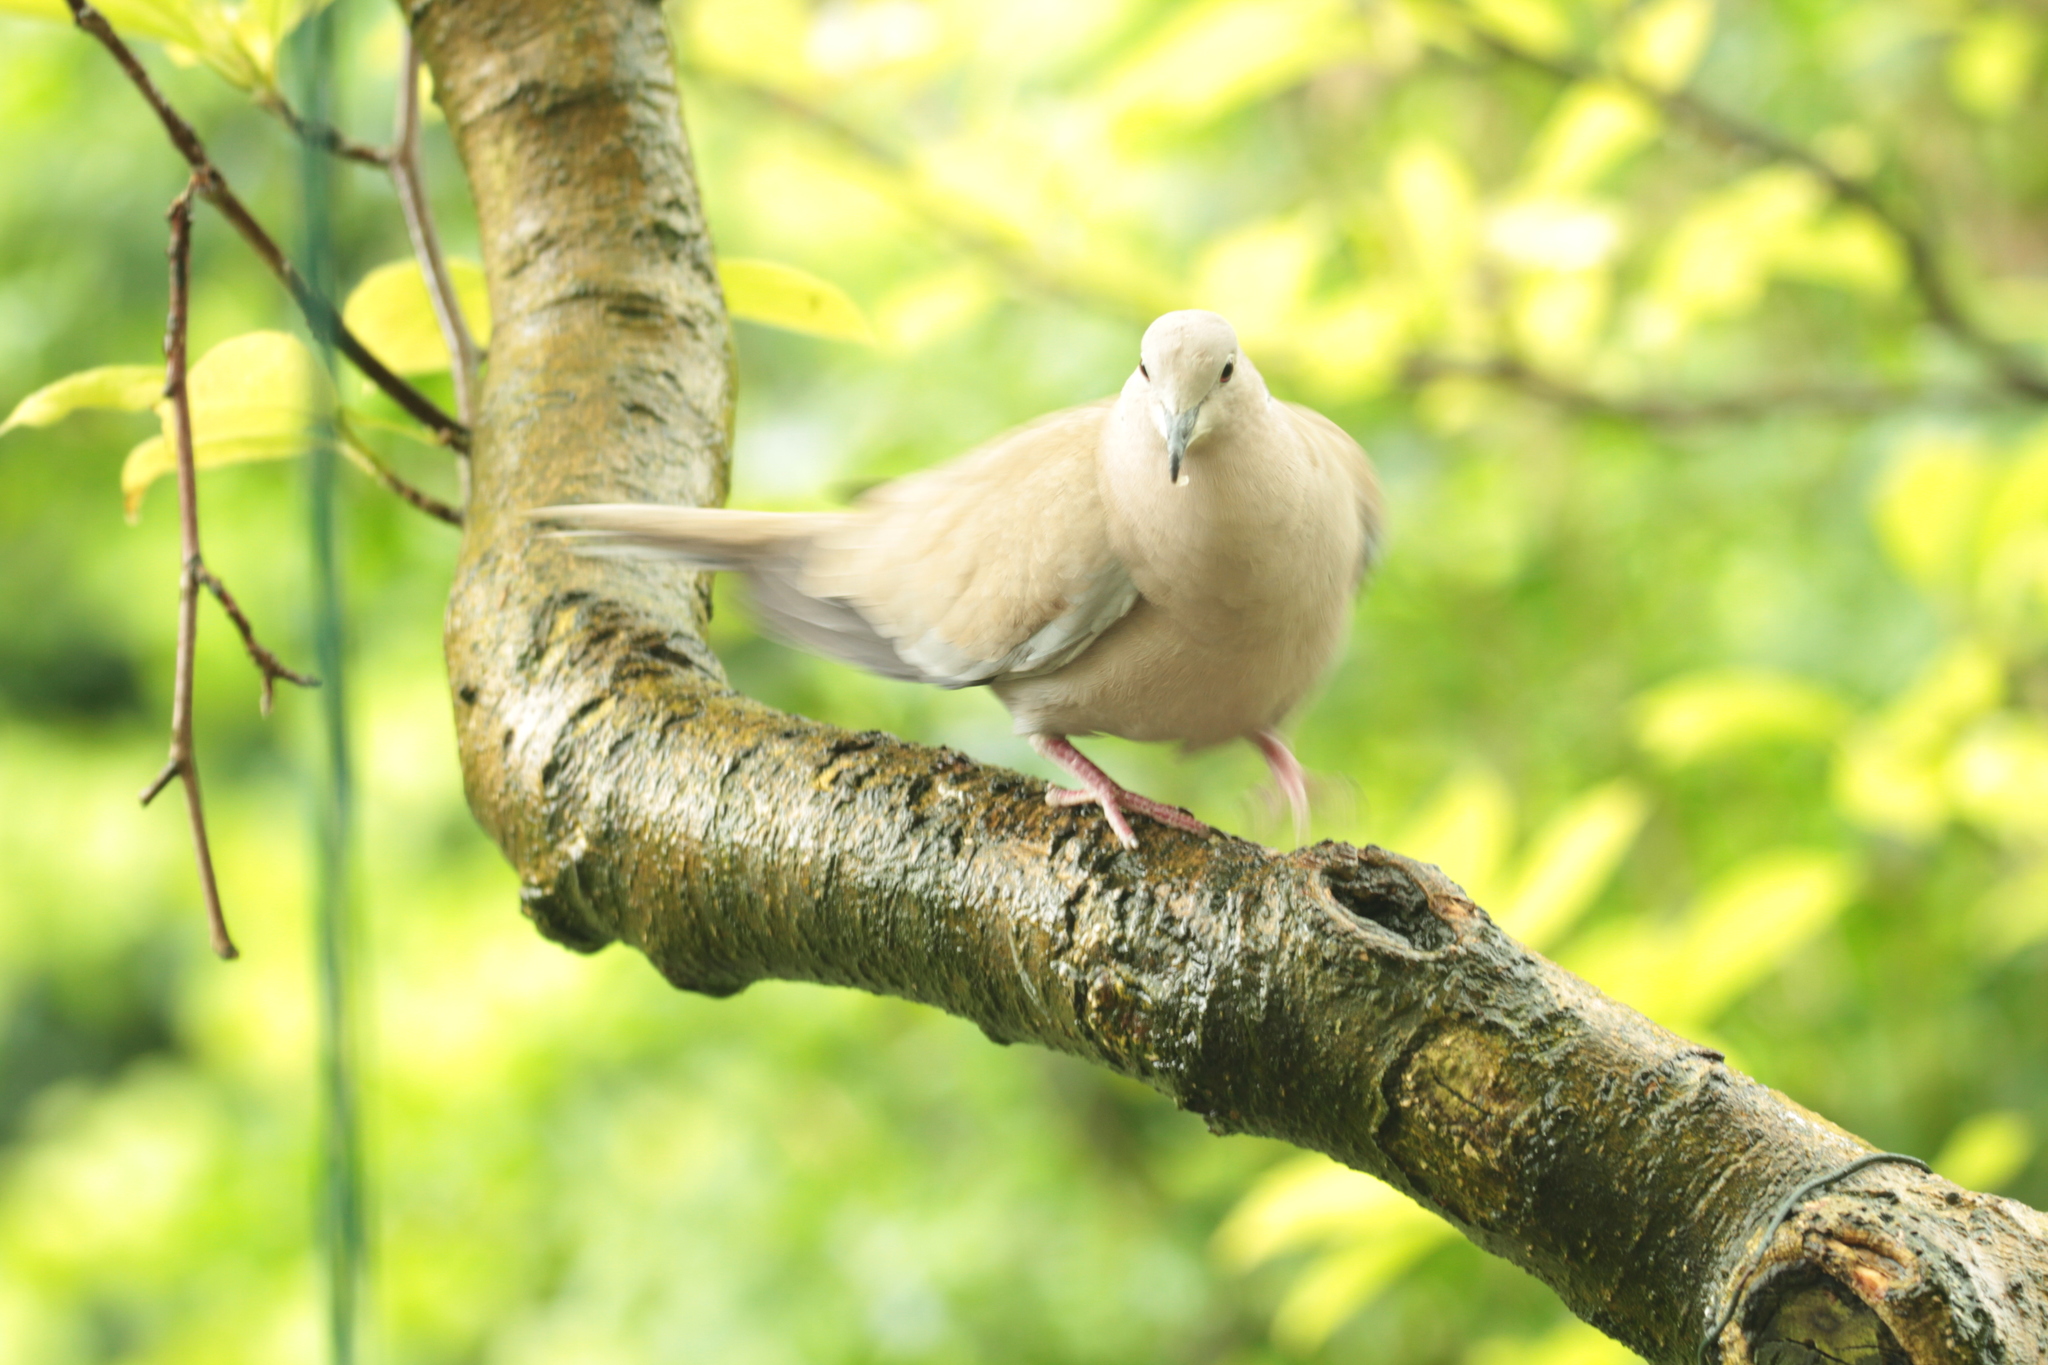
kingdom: Animalia
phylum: Chordata
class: Aves
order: Columbiformes
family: Columbidae
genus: Streptopelia
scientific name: Streptopelia decaocto
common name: Eurasian collared dove
